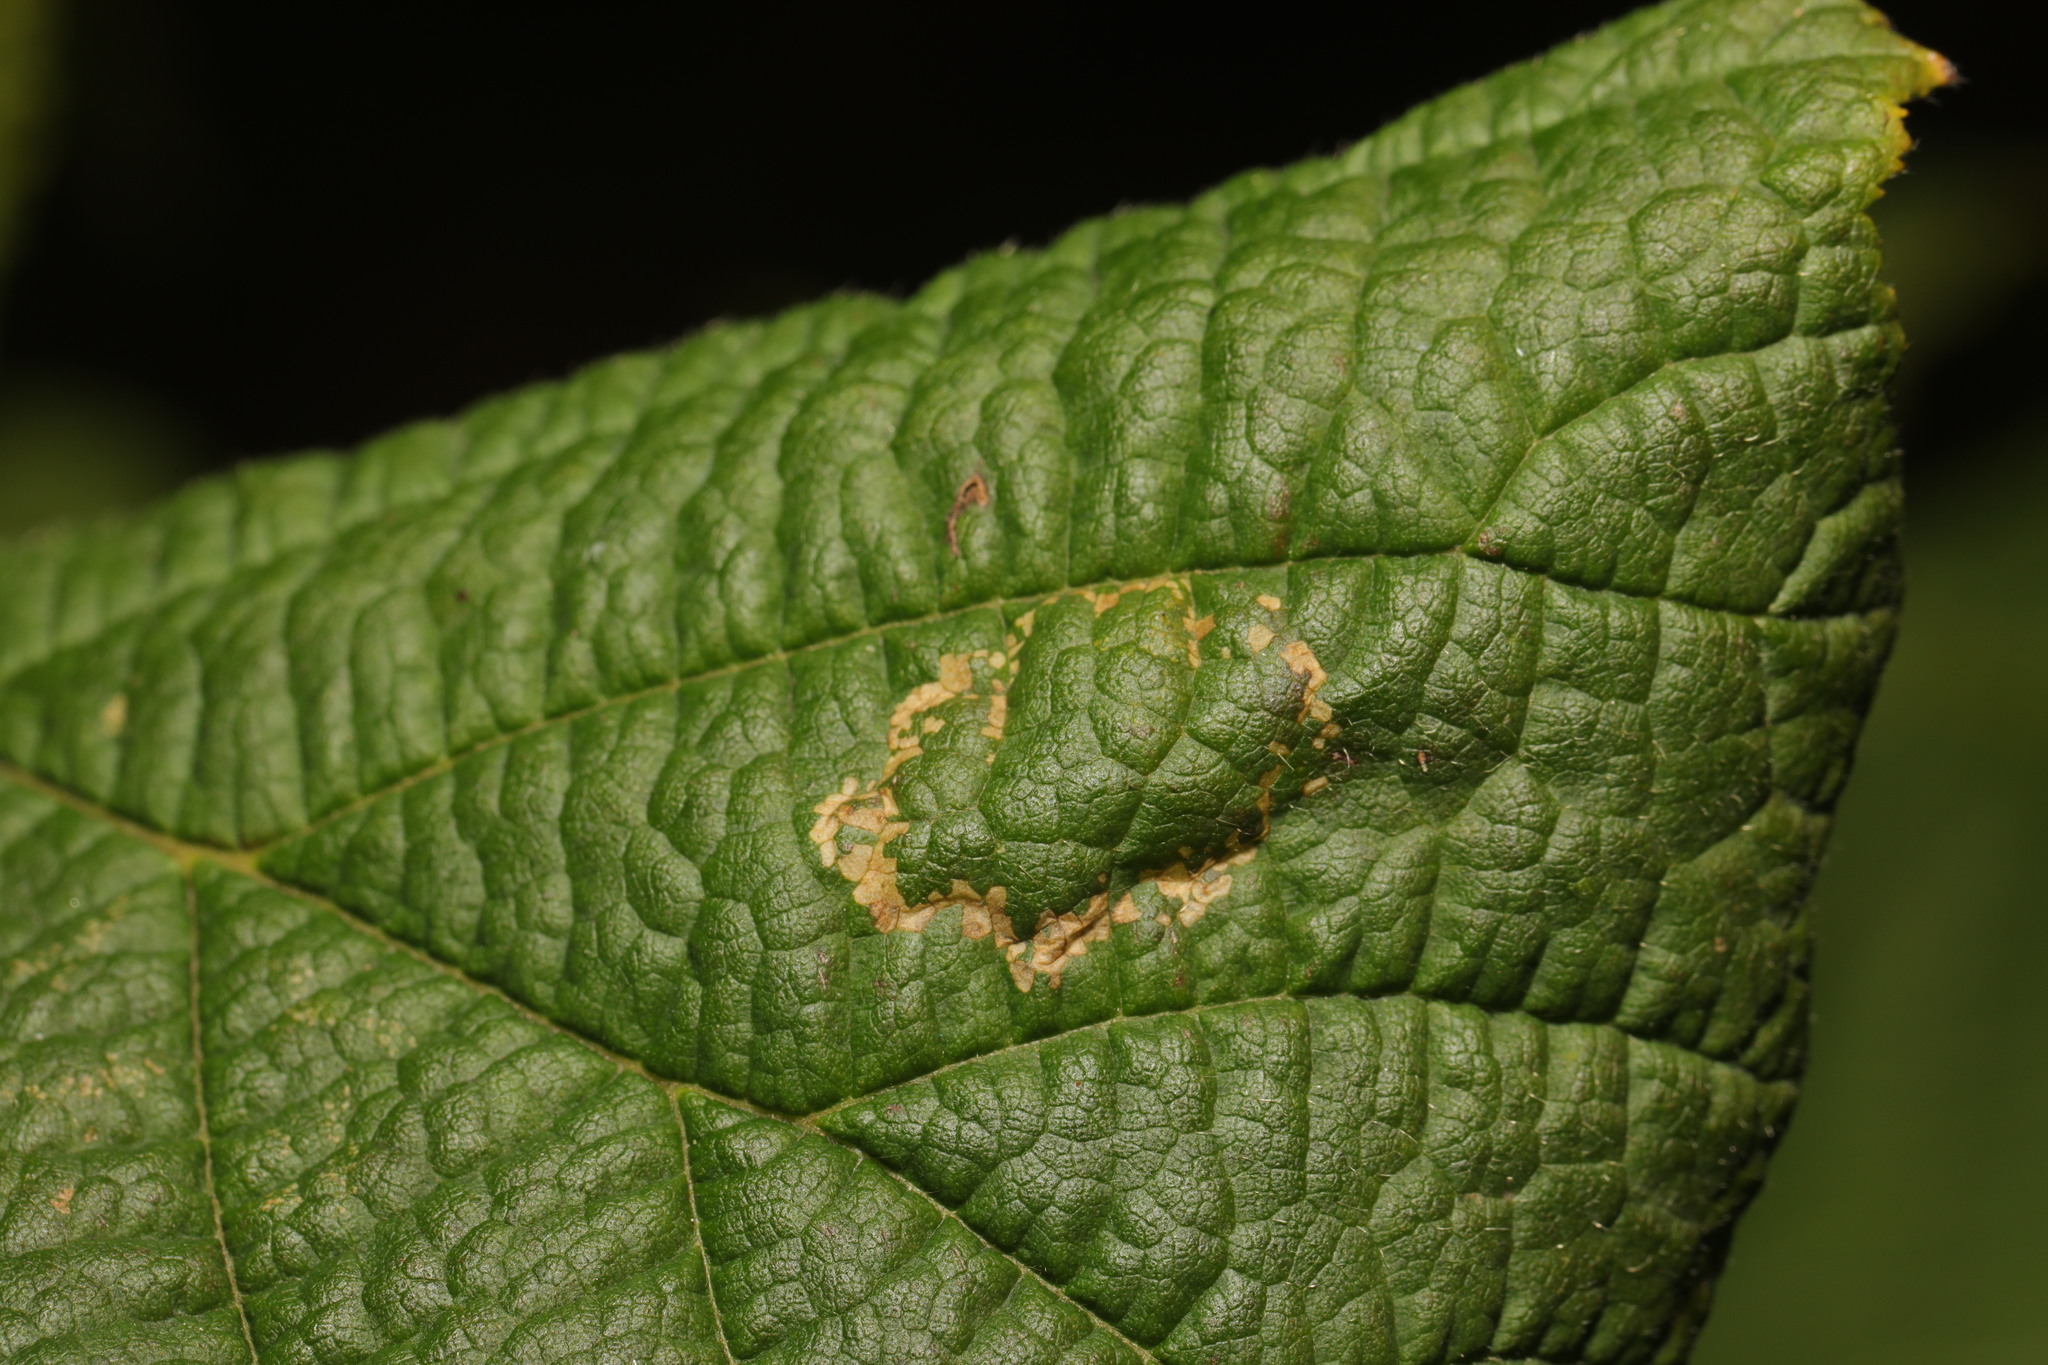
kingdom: Animalia
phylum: Arthropoda
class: Insecta
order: Lepidoptera
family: Gracillariidae
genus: Phyllonorycter
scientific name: Phyllonorycter nicellii
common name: Red hazel midget
